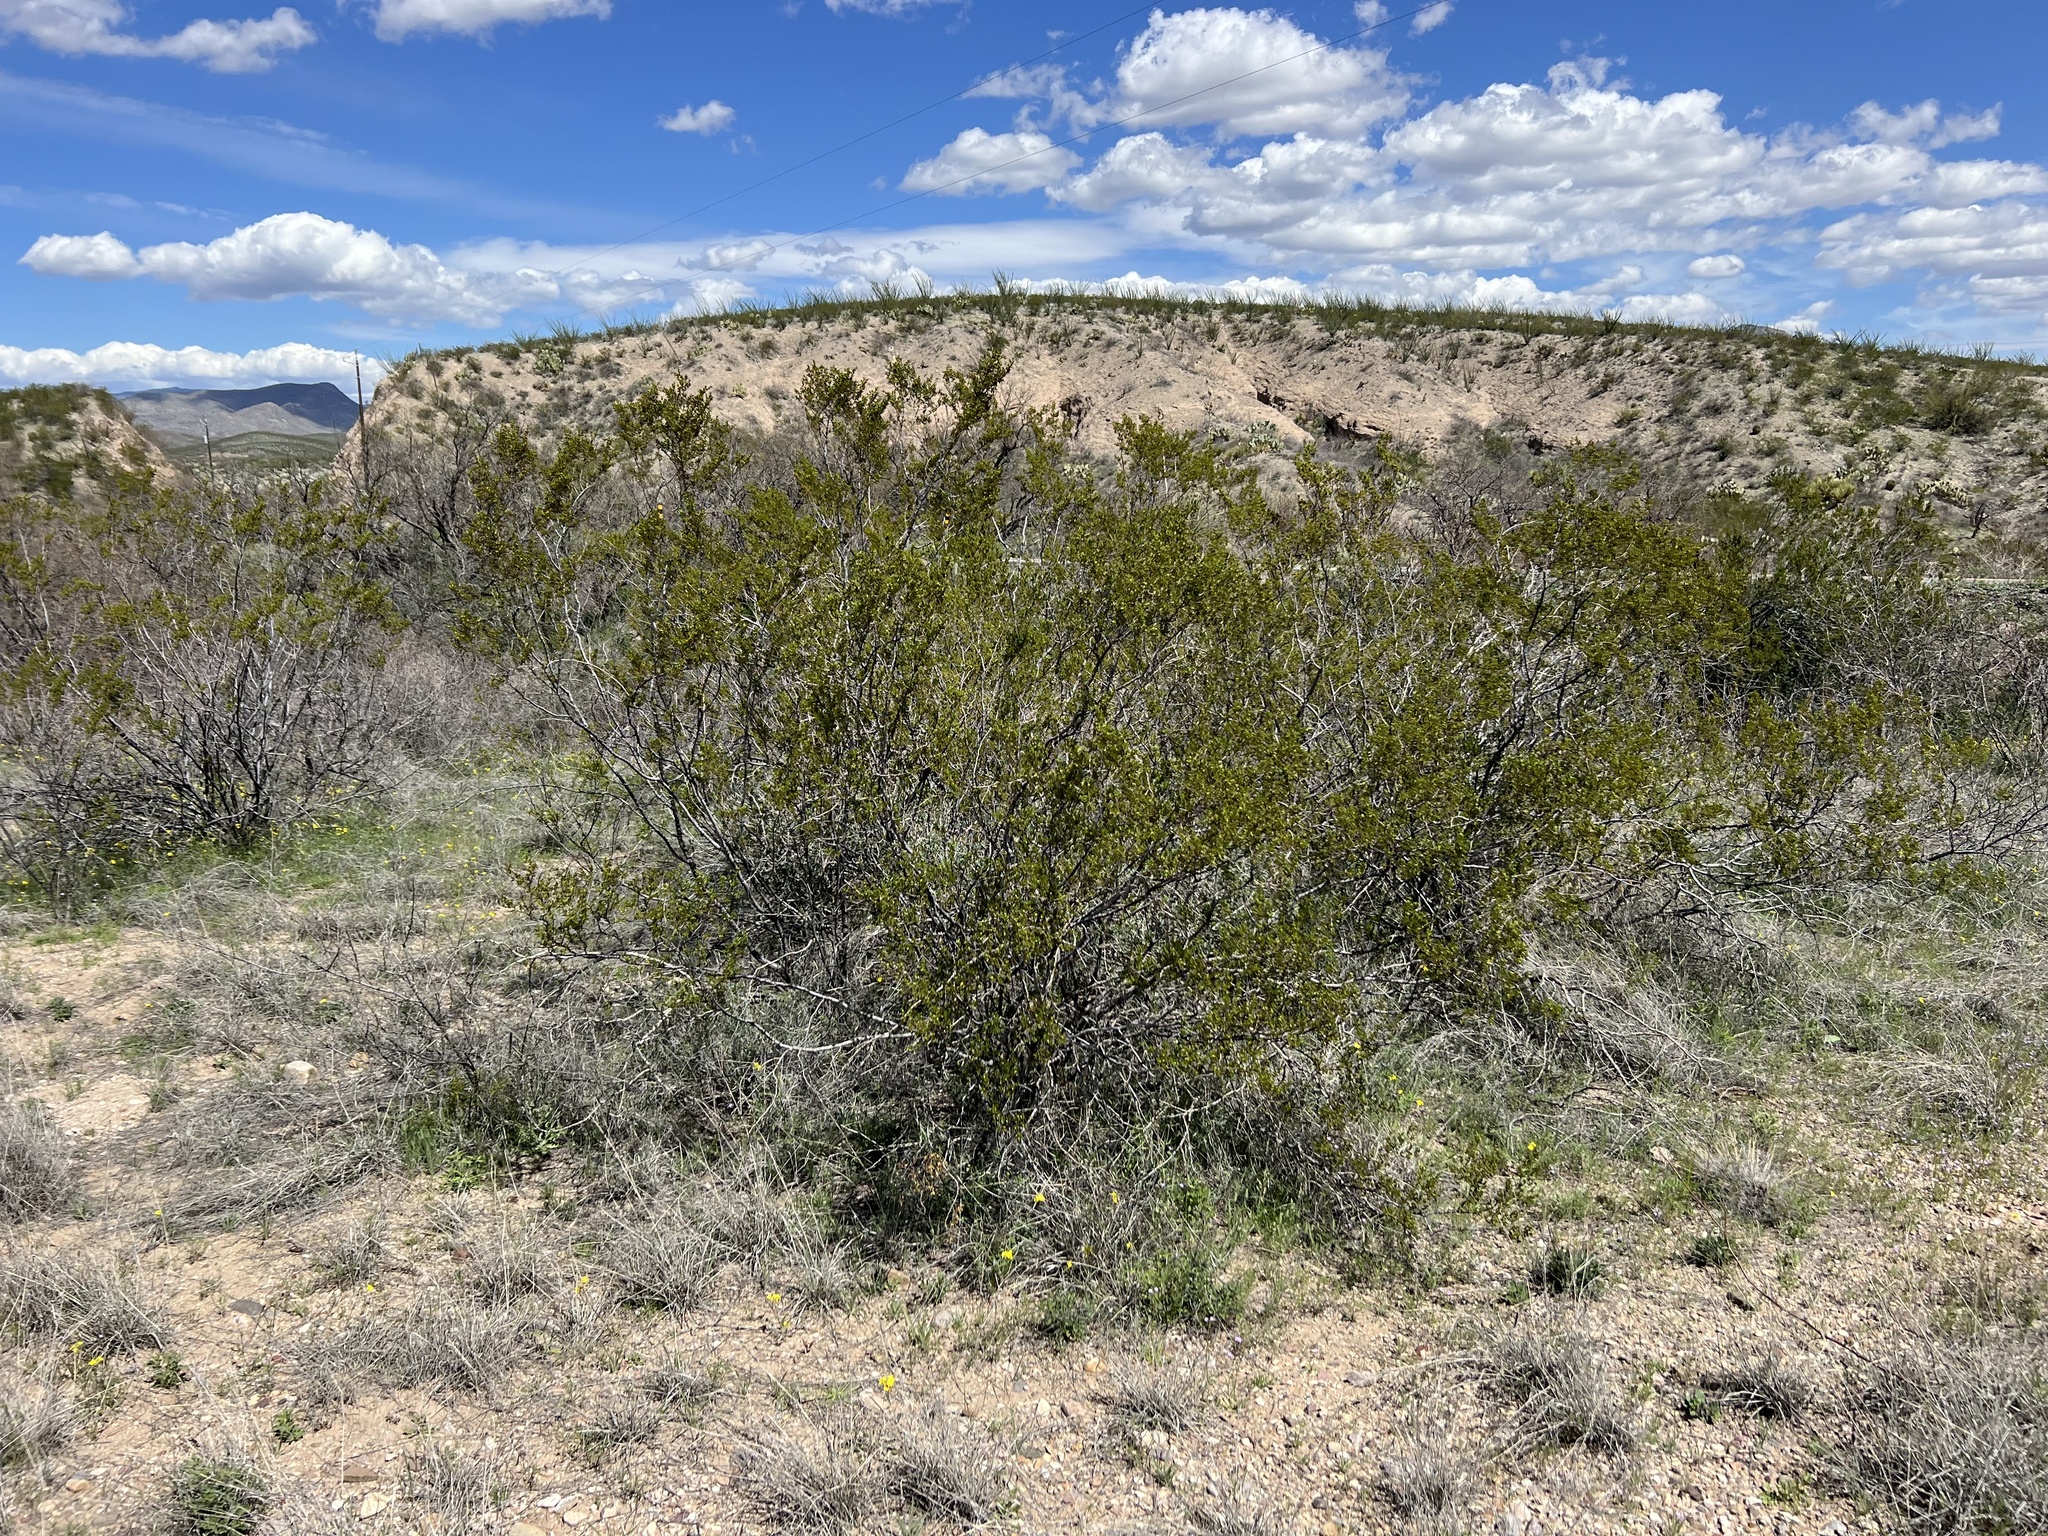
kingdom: Plantae
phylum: Tracheophyta
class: Magnoliopsida
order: Zygophyllales
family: Zygophyllaceae
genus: Larrea
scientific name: Larrea tridentata
